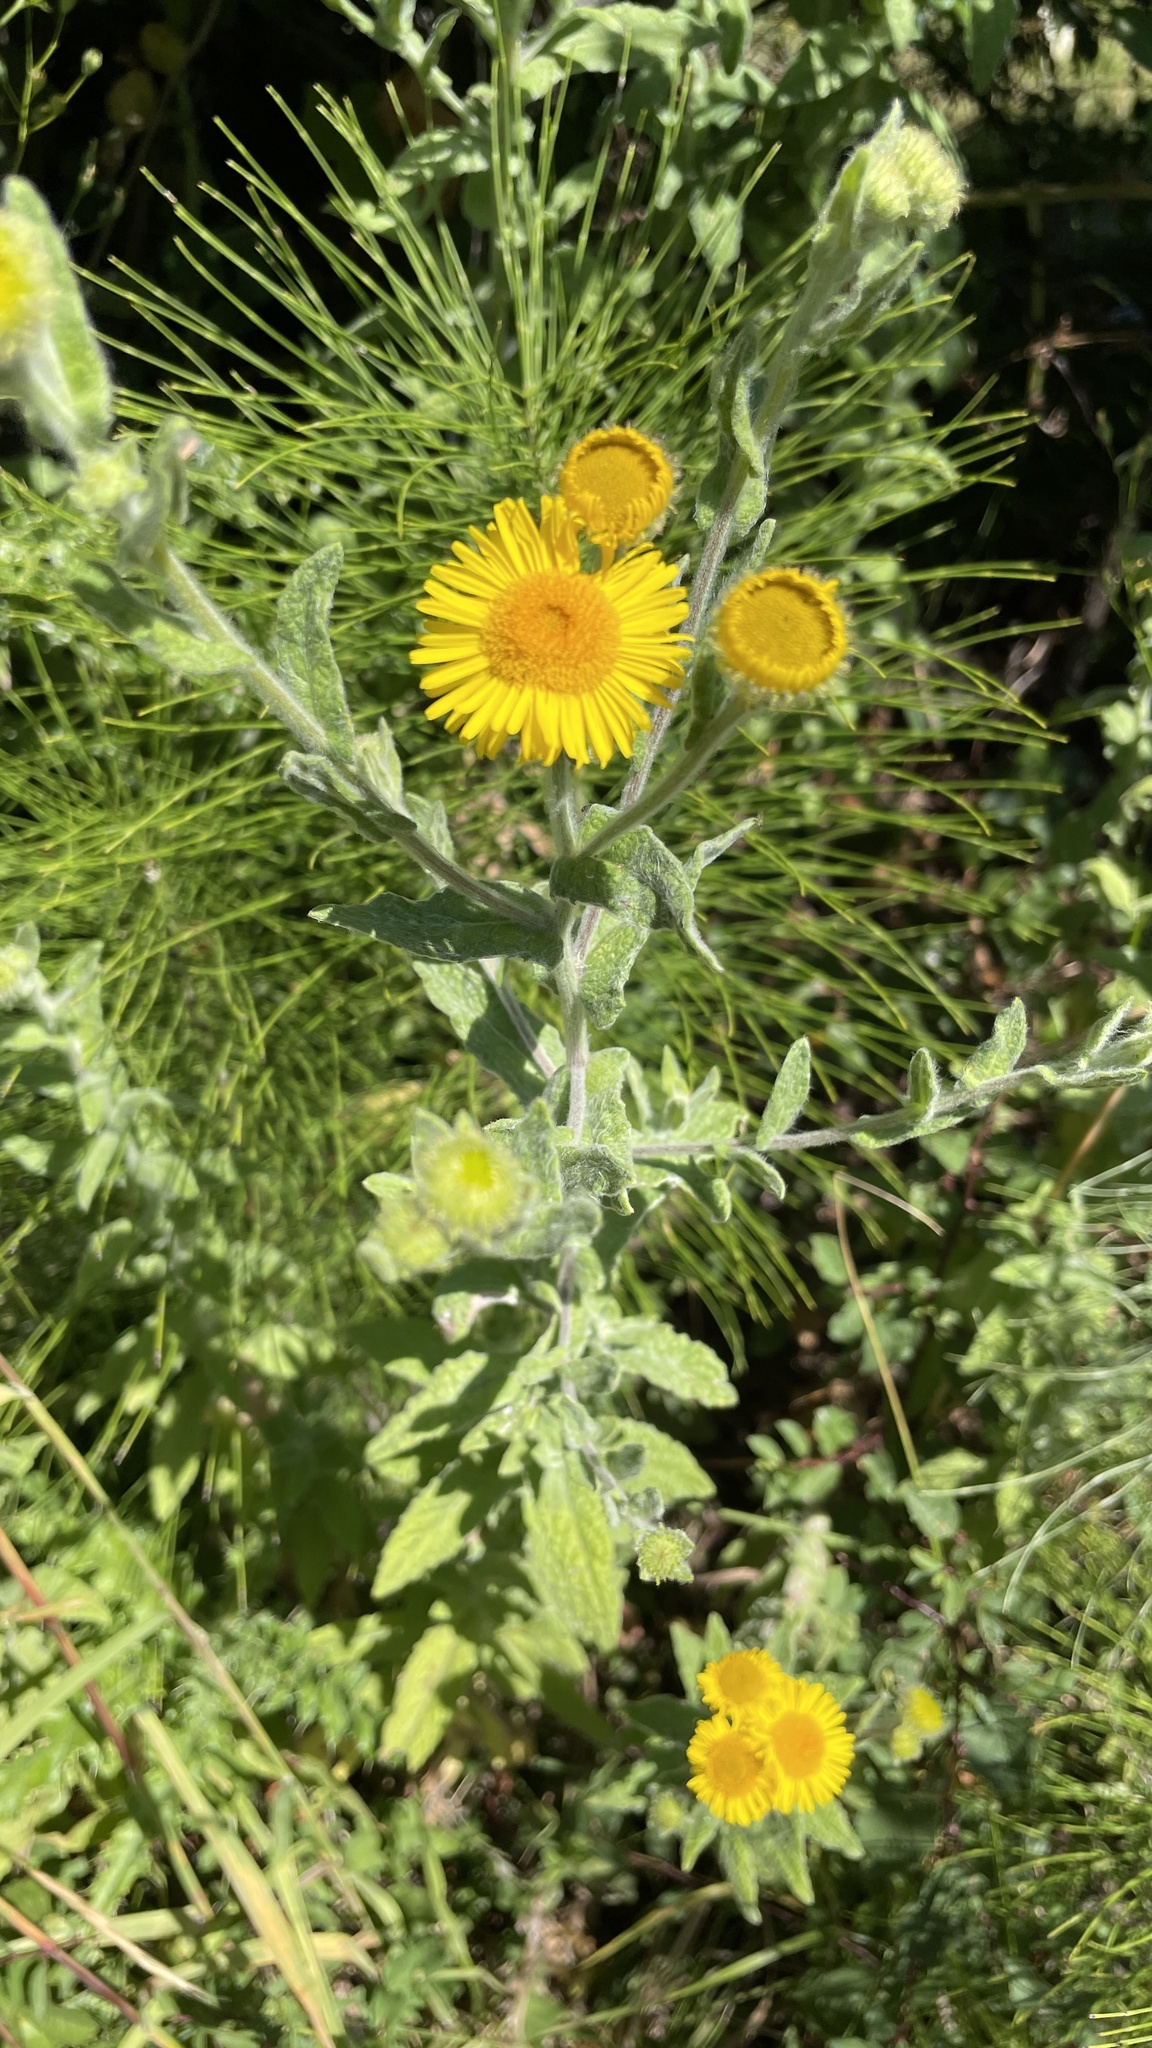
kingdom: Plantae
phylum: Tracheophyta
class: Magnoliopsida
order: Asterales
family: Asteraceae
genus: Pulicaria
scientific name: Pulicaria dysenterica
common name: Common fleabane
